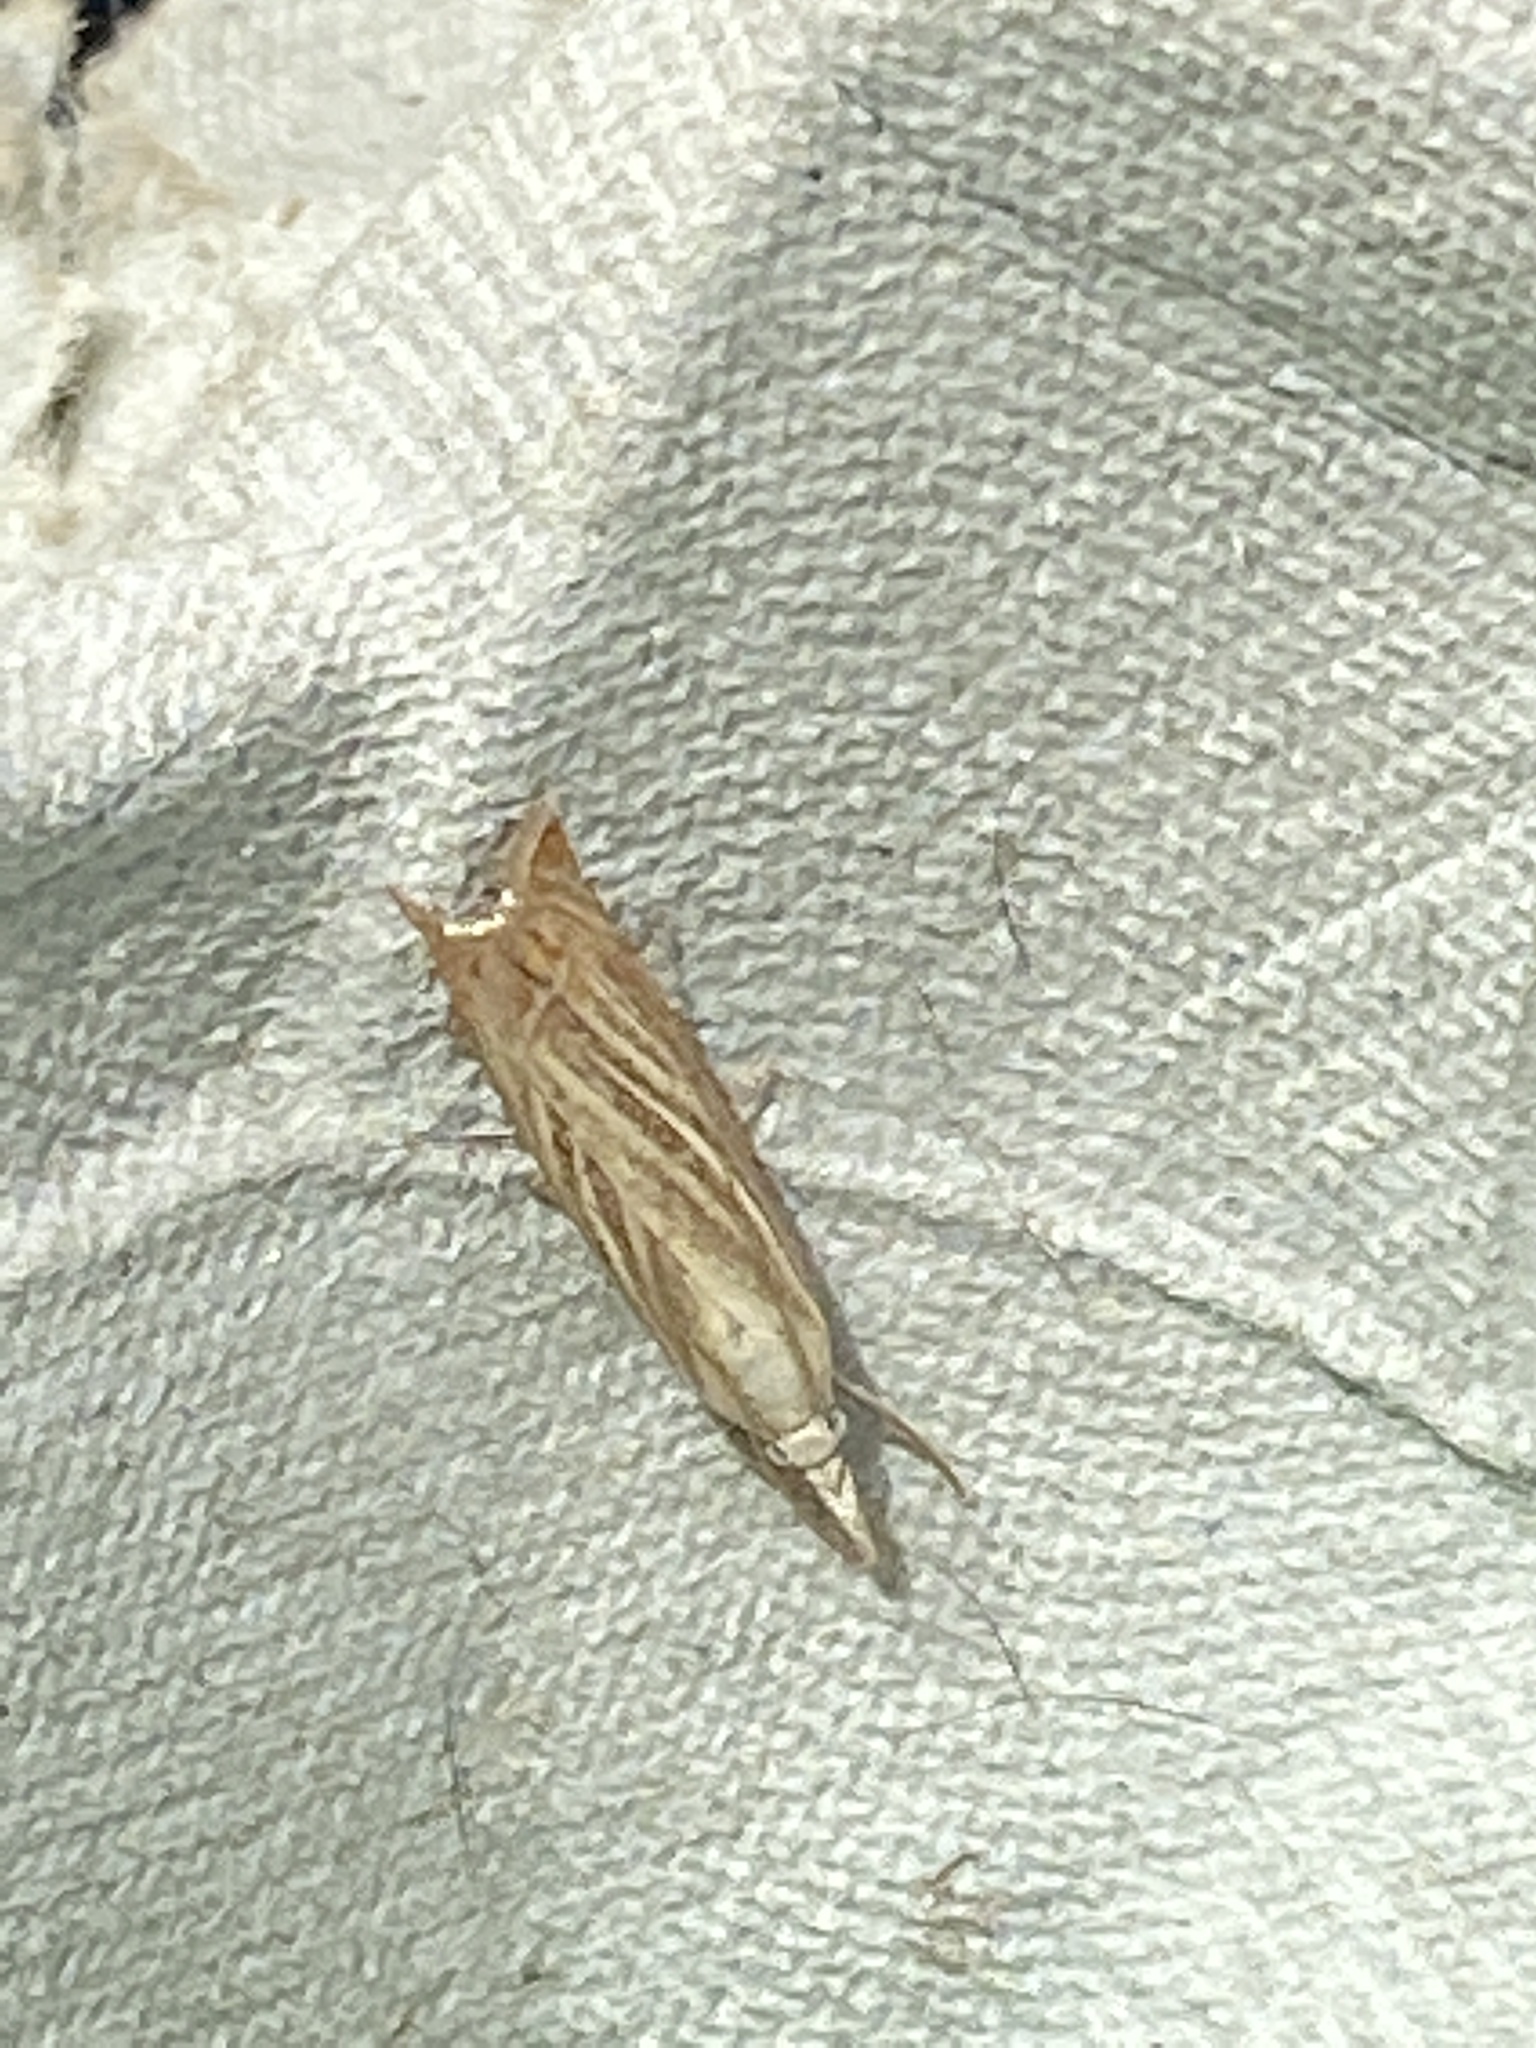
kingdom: Animalia
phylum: Arthropoda
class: Insecta
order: Lepidoptera
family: Crambidae
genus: Chrysoteuchia
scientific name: Chrysoteuchia culmella
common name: Garden grass-veneer
